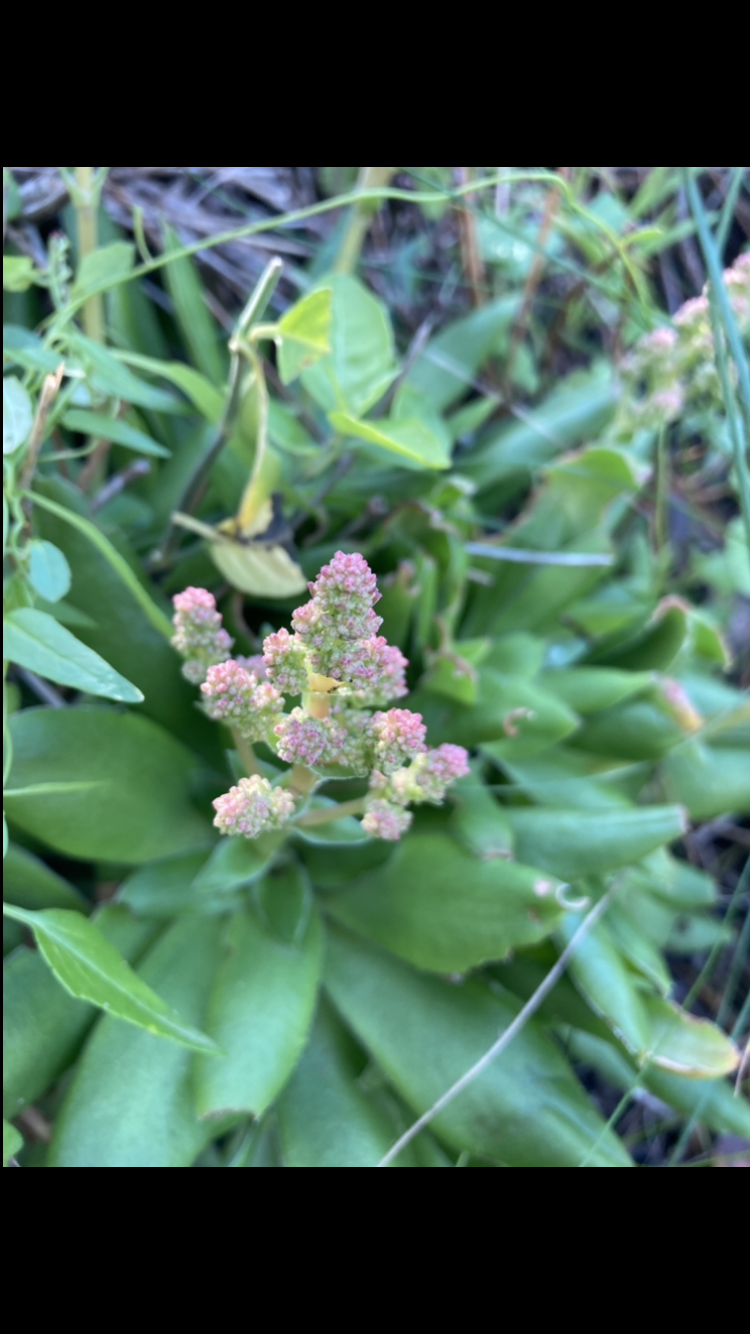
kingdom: Plantae
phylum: Tracheophyta
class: Magnoliopsida
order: Saxifragales
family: Crassulaceae
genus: Crassula
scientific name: Crassula orbicularis
